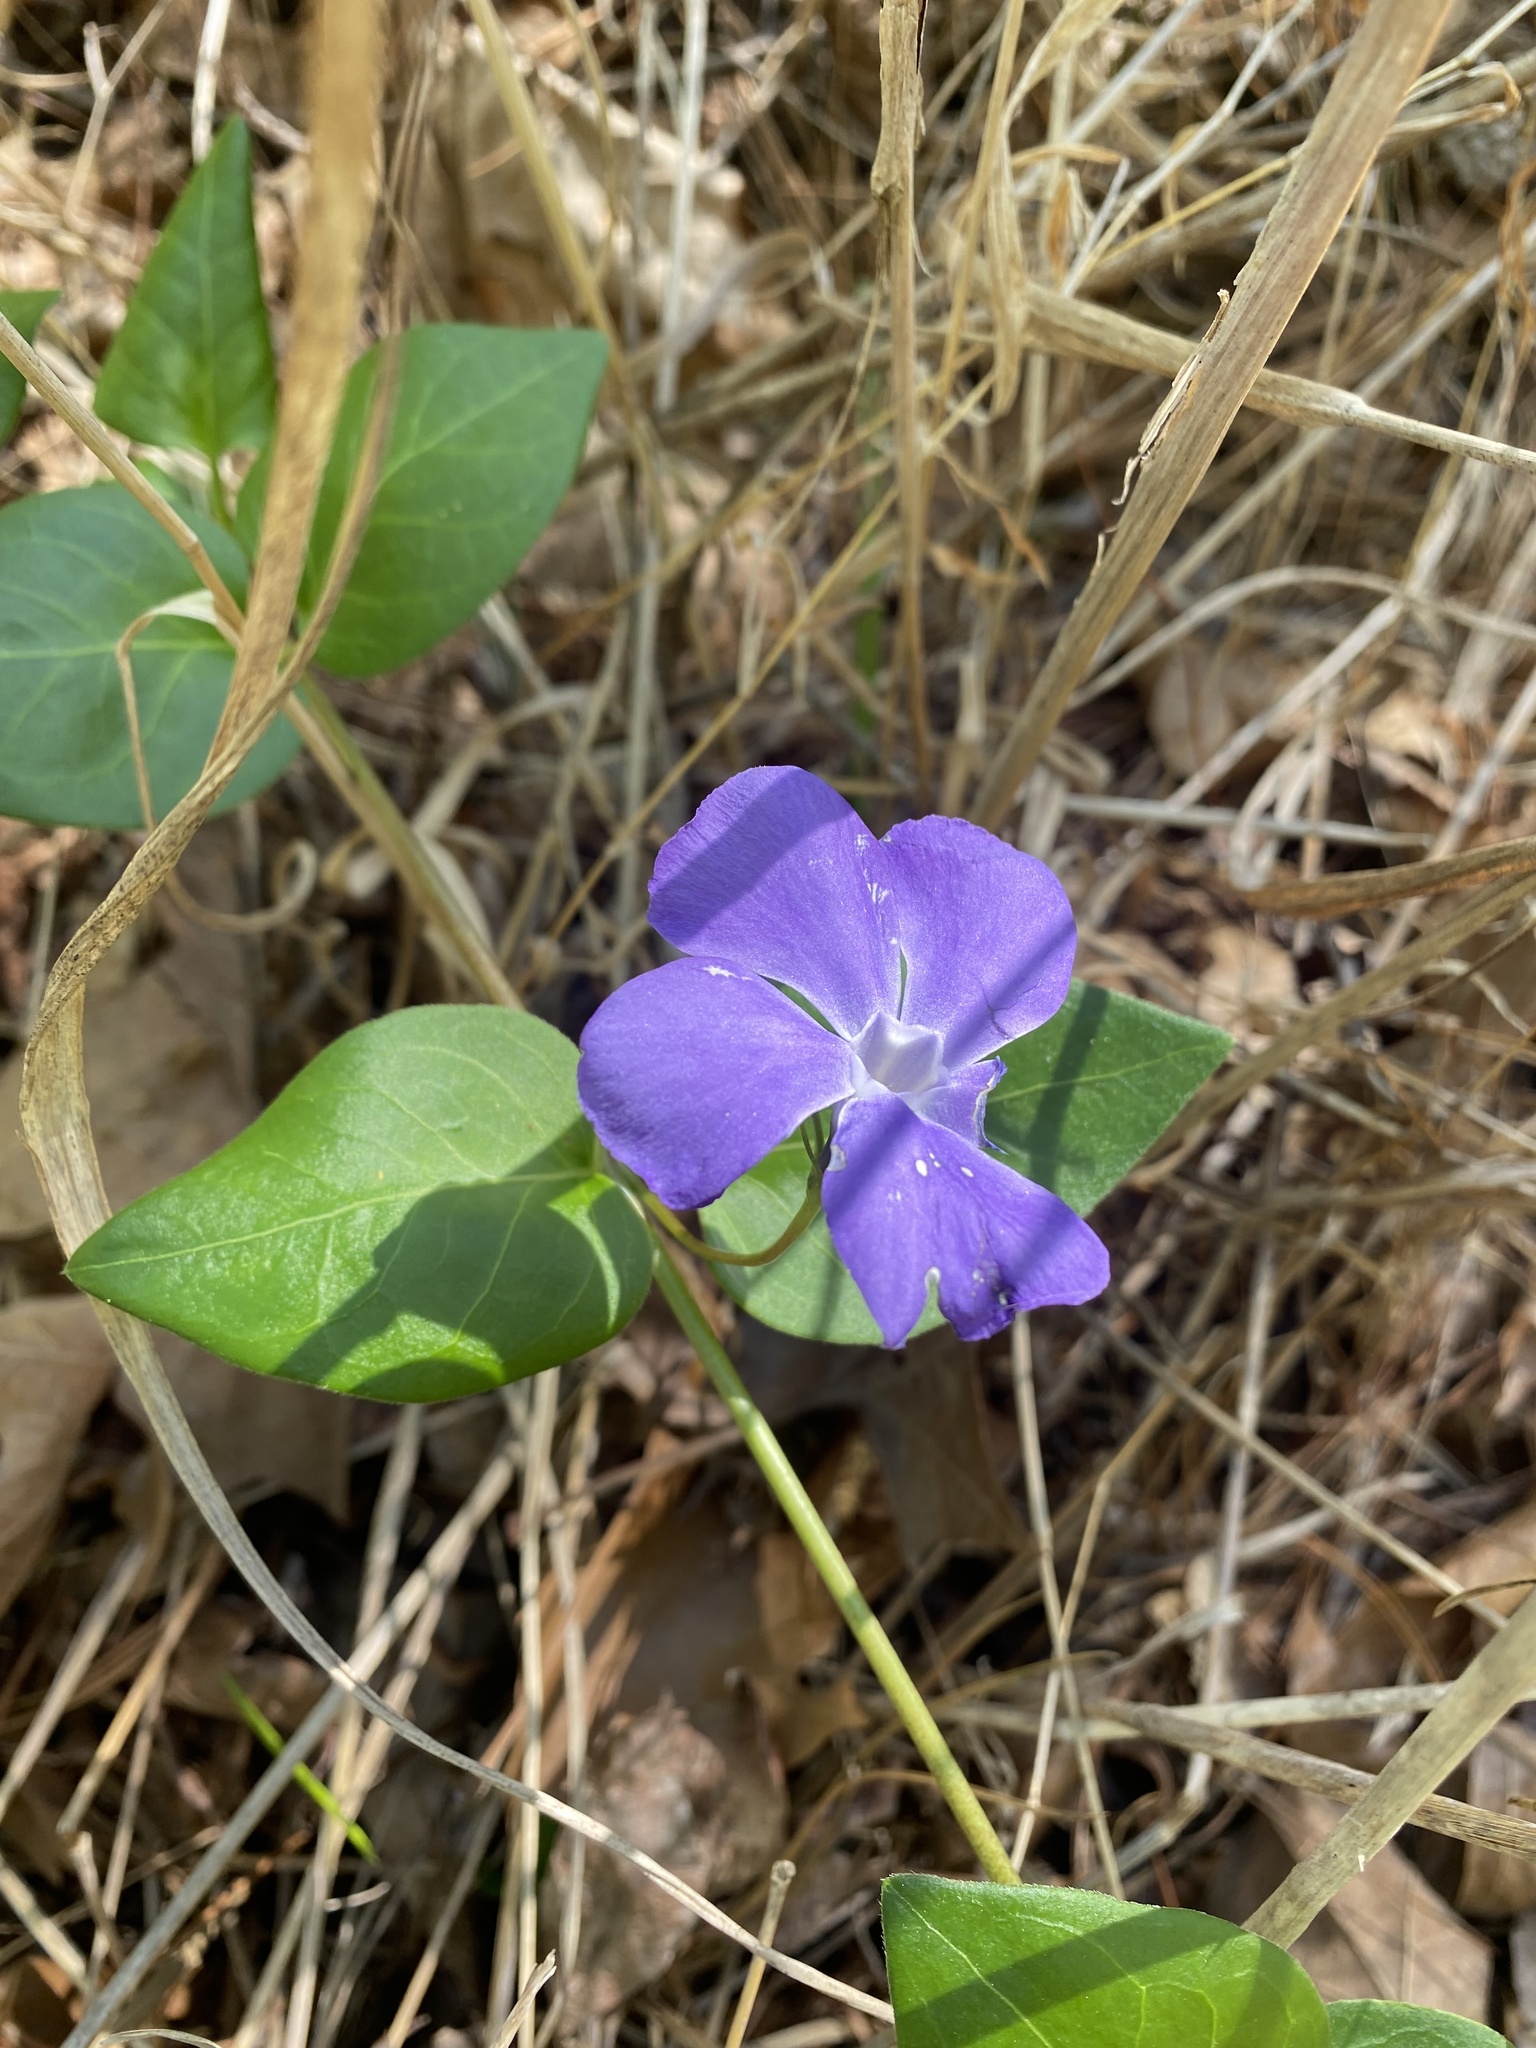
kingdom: Plantae
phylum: Tracheophyta
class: Magnoliopsida
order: Gentianales
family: Apocynaceae
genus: Vinca
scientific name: Vinca major
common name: Greater periwinkle
